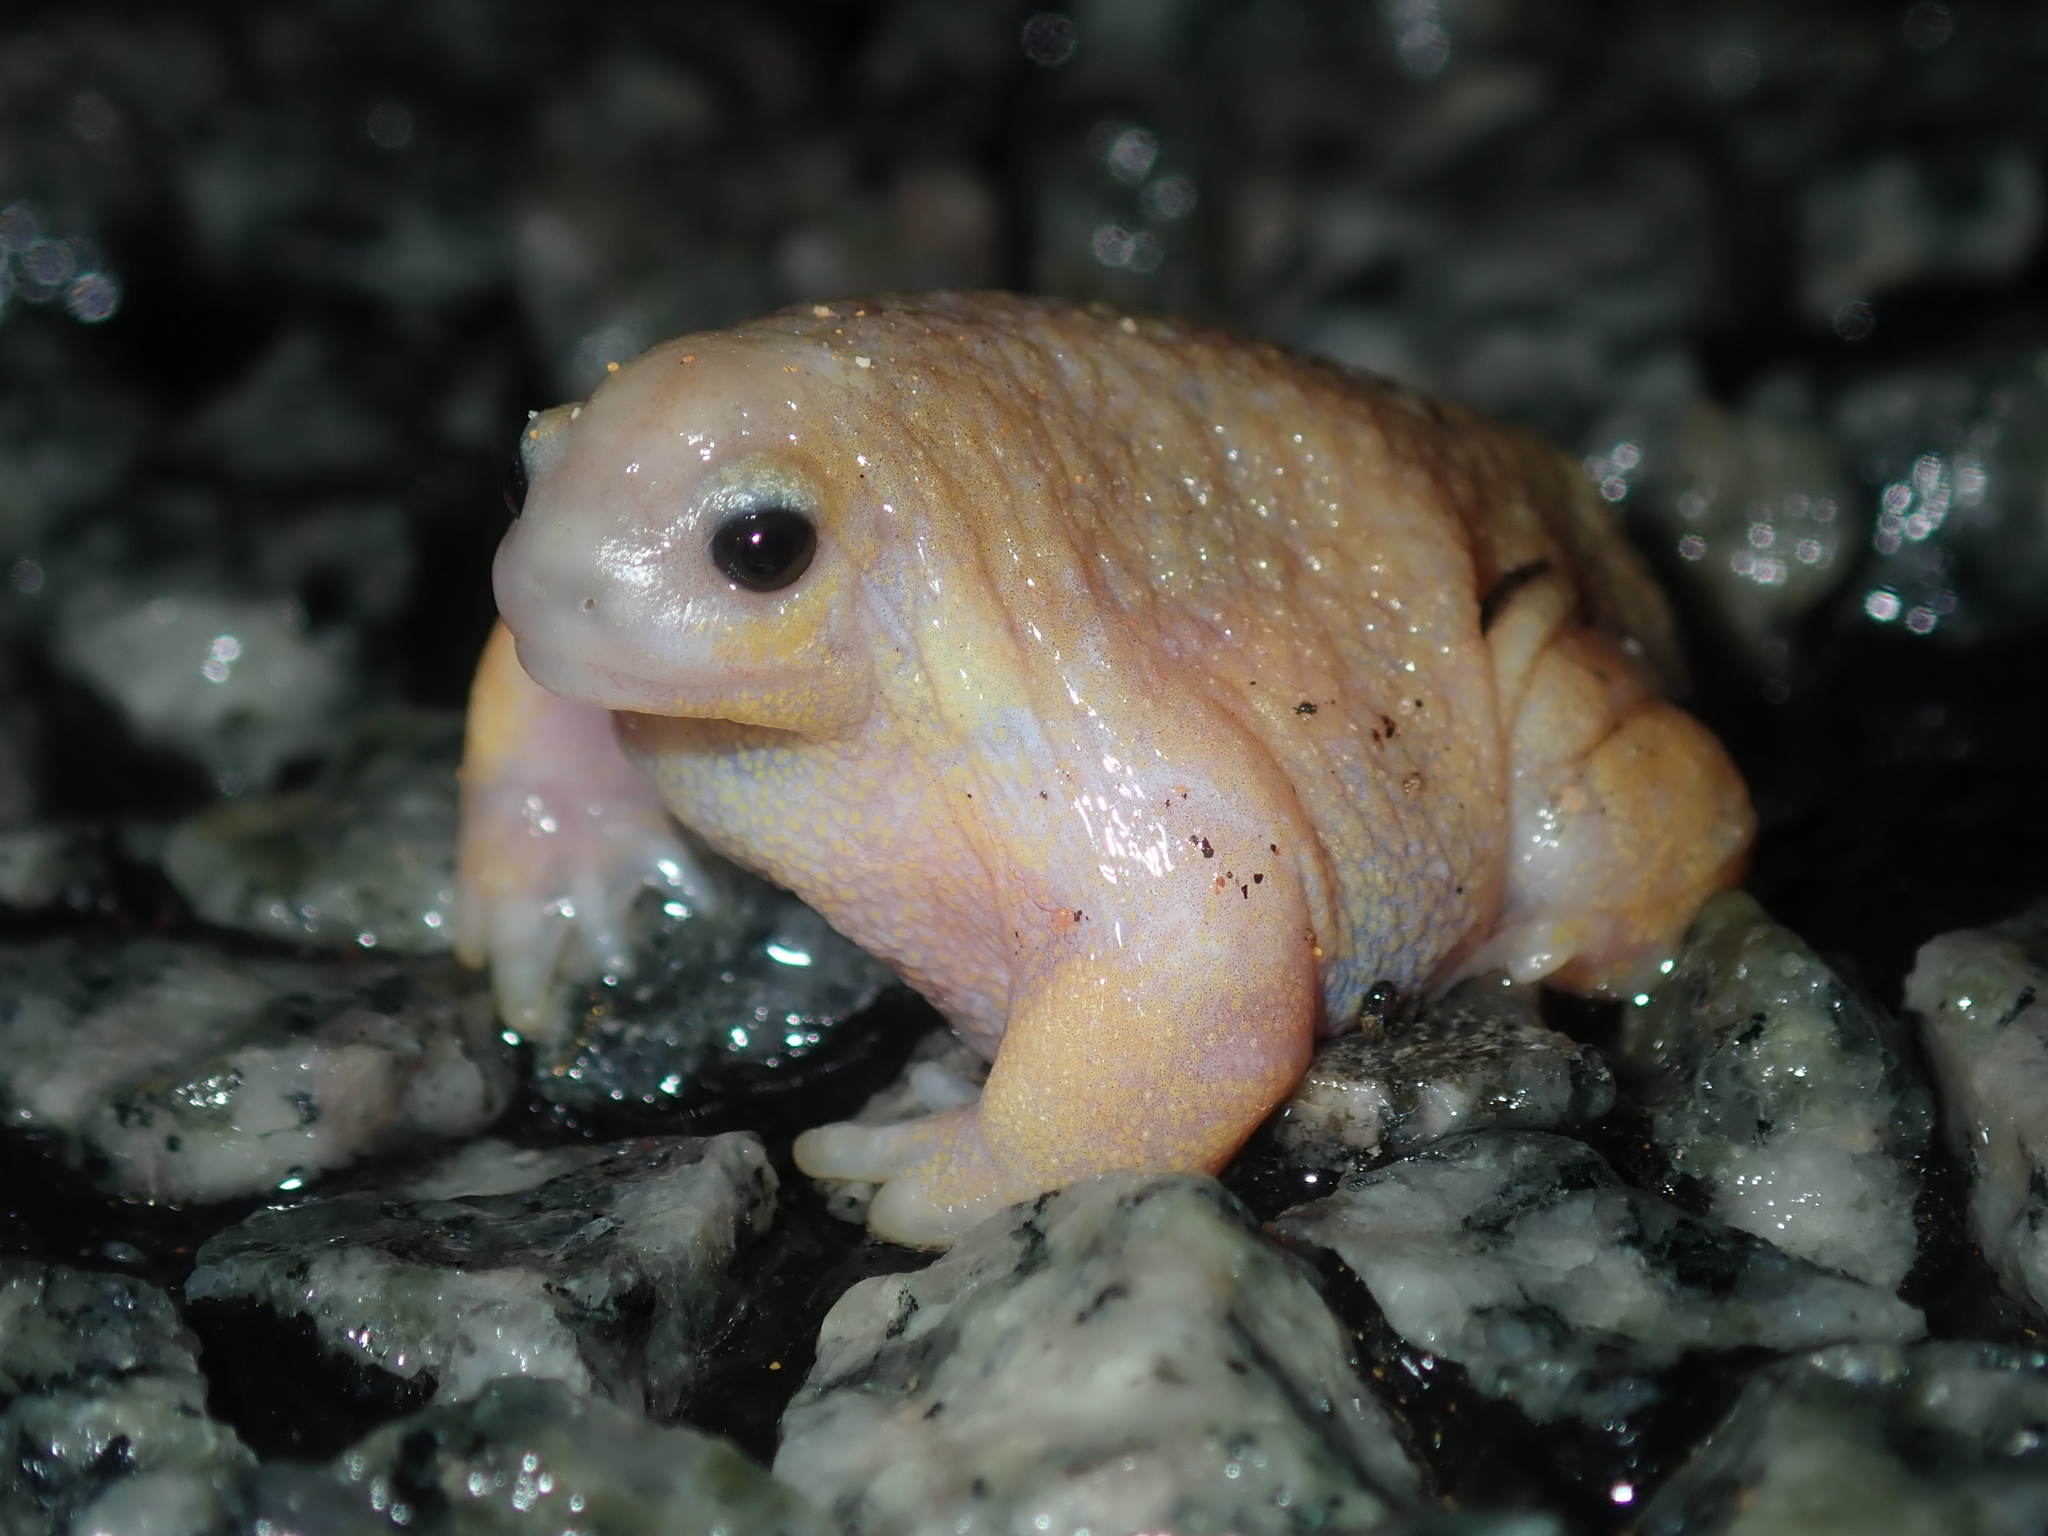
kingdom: Animalia
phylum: Chordata
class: Amphibia
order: Anura
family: Myobatrachidae
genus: Myobatrachus
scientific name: Myobatrachus gouldii
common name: Turtle frog
